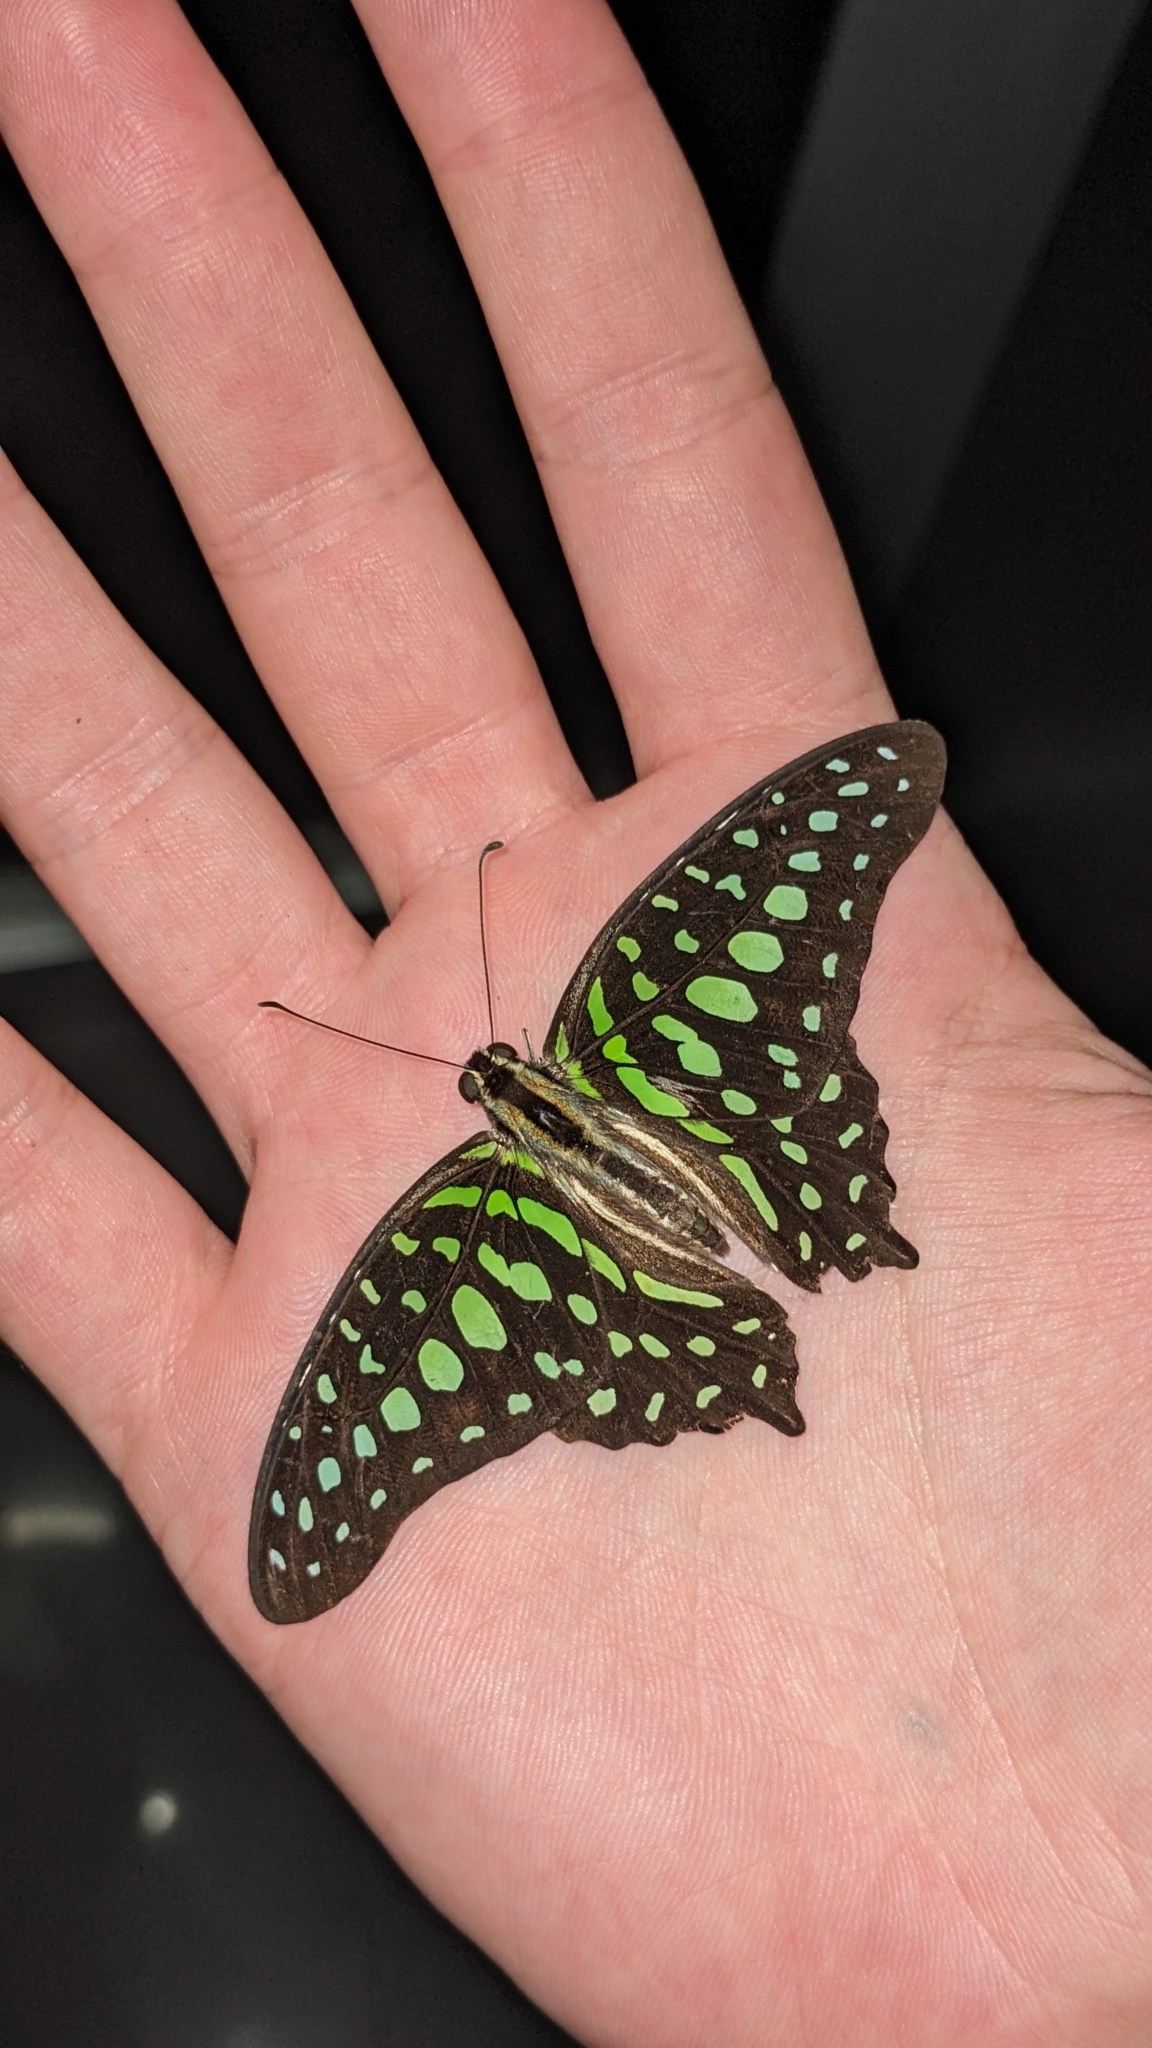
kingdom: Animalia
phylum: Arthropoda
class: Insecta
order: Lepidoptera
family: Papilionidae
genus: Graphium
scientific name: Graphium agamemnon
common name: Tailed jay
